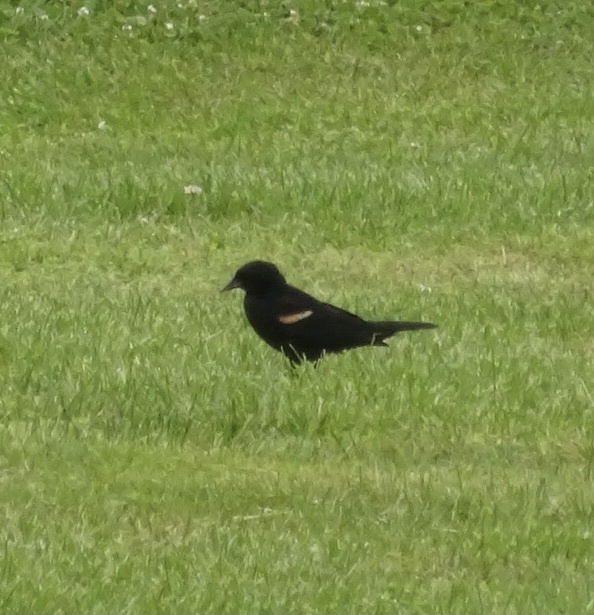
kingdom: Animalia
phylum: Chordata
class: Aves
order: Passeriformes
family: Icteridae
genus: Agelaius
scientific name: Agelaius phoeniceus
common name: Red-winged blackbird
